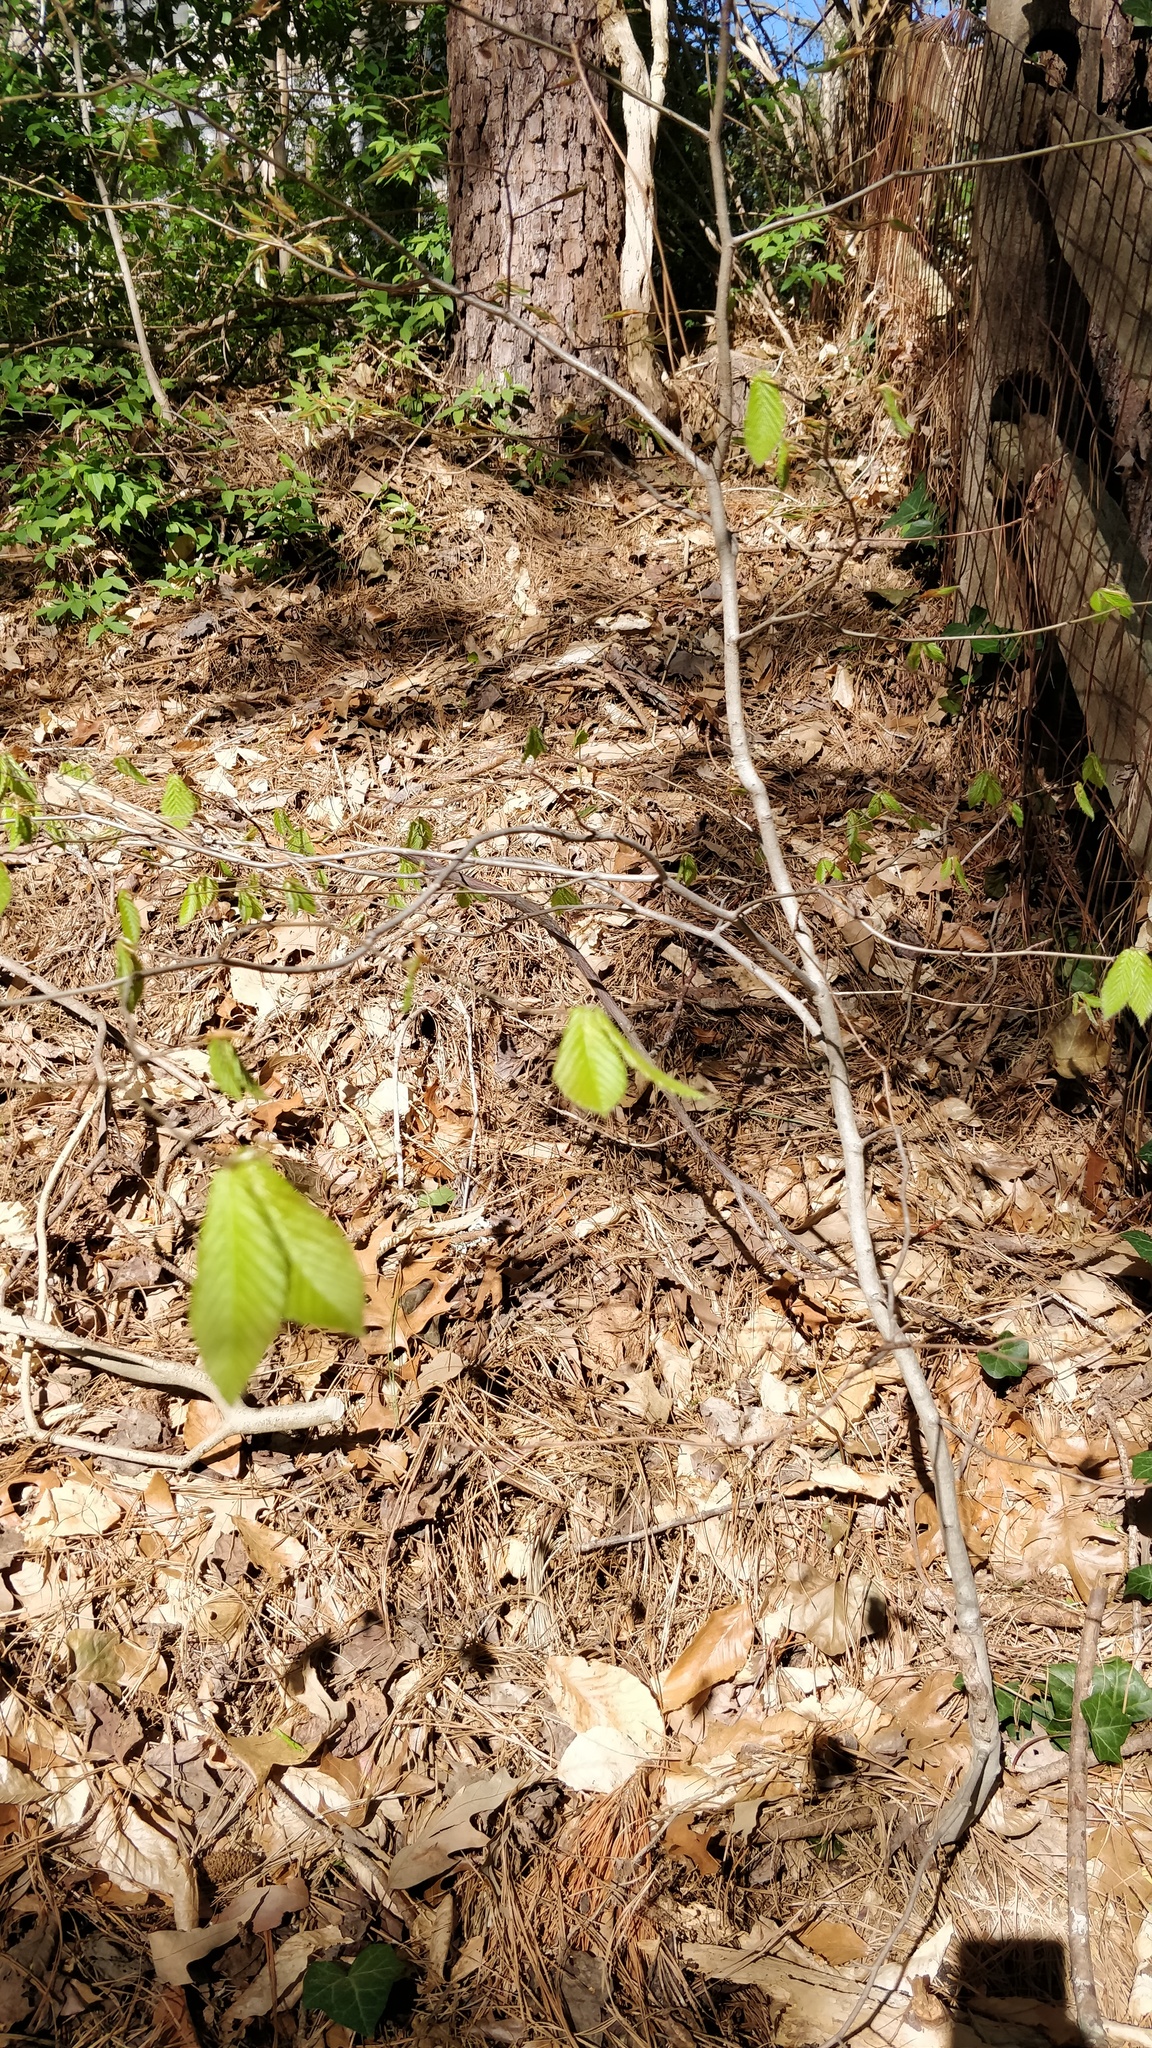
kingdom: Plantae
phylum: Tracheophyta
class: Magnoliopsida
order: Fagales
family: Fagaceae
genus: Fagus
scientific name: Fagus grandifolia
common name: American beech
